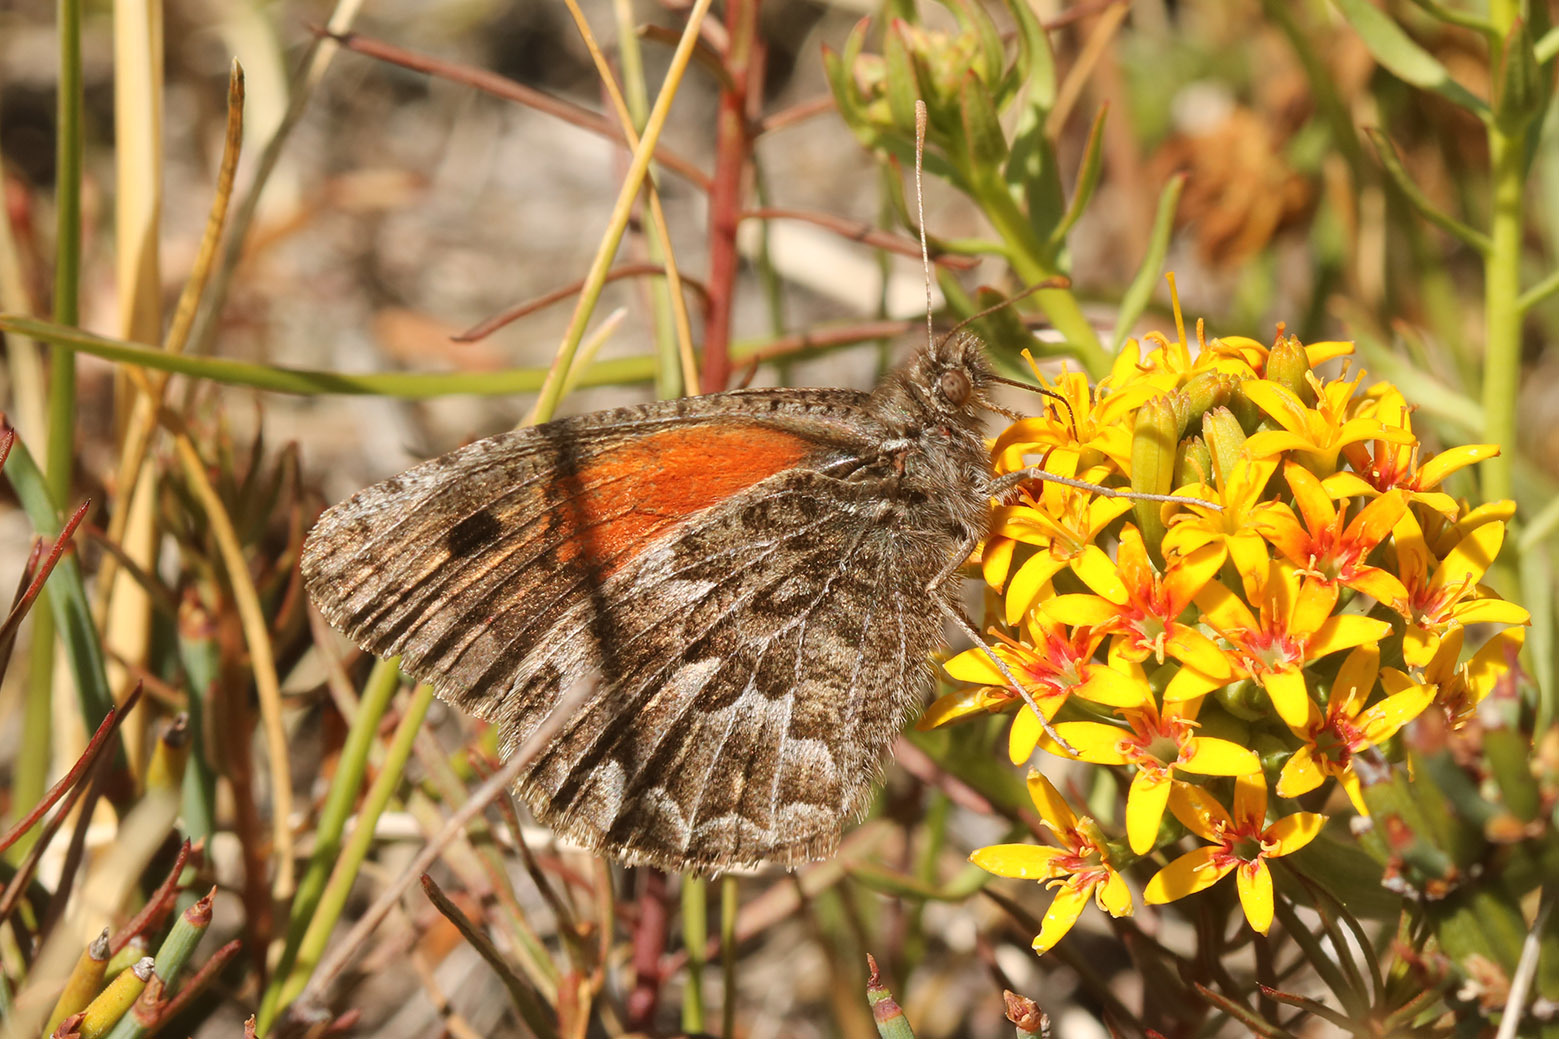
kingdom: Animalia
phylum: Arthropoda
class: Insecta
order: Lepidoptera
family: Nymphalidae
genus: Argyrophorus
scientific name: Argyrophorus
